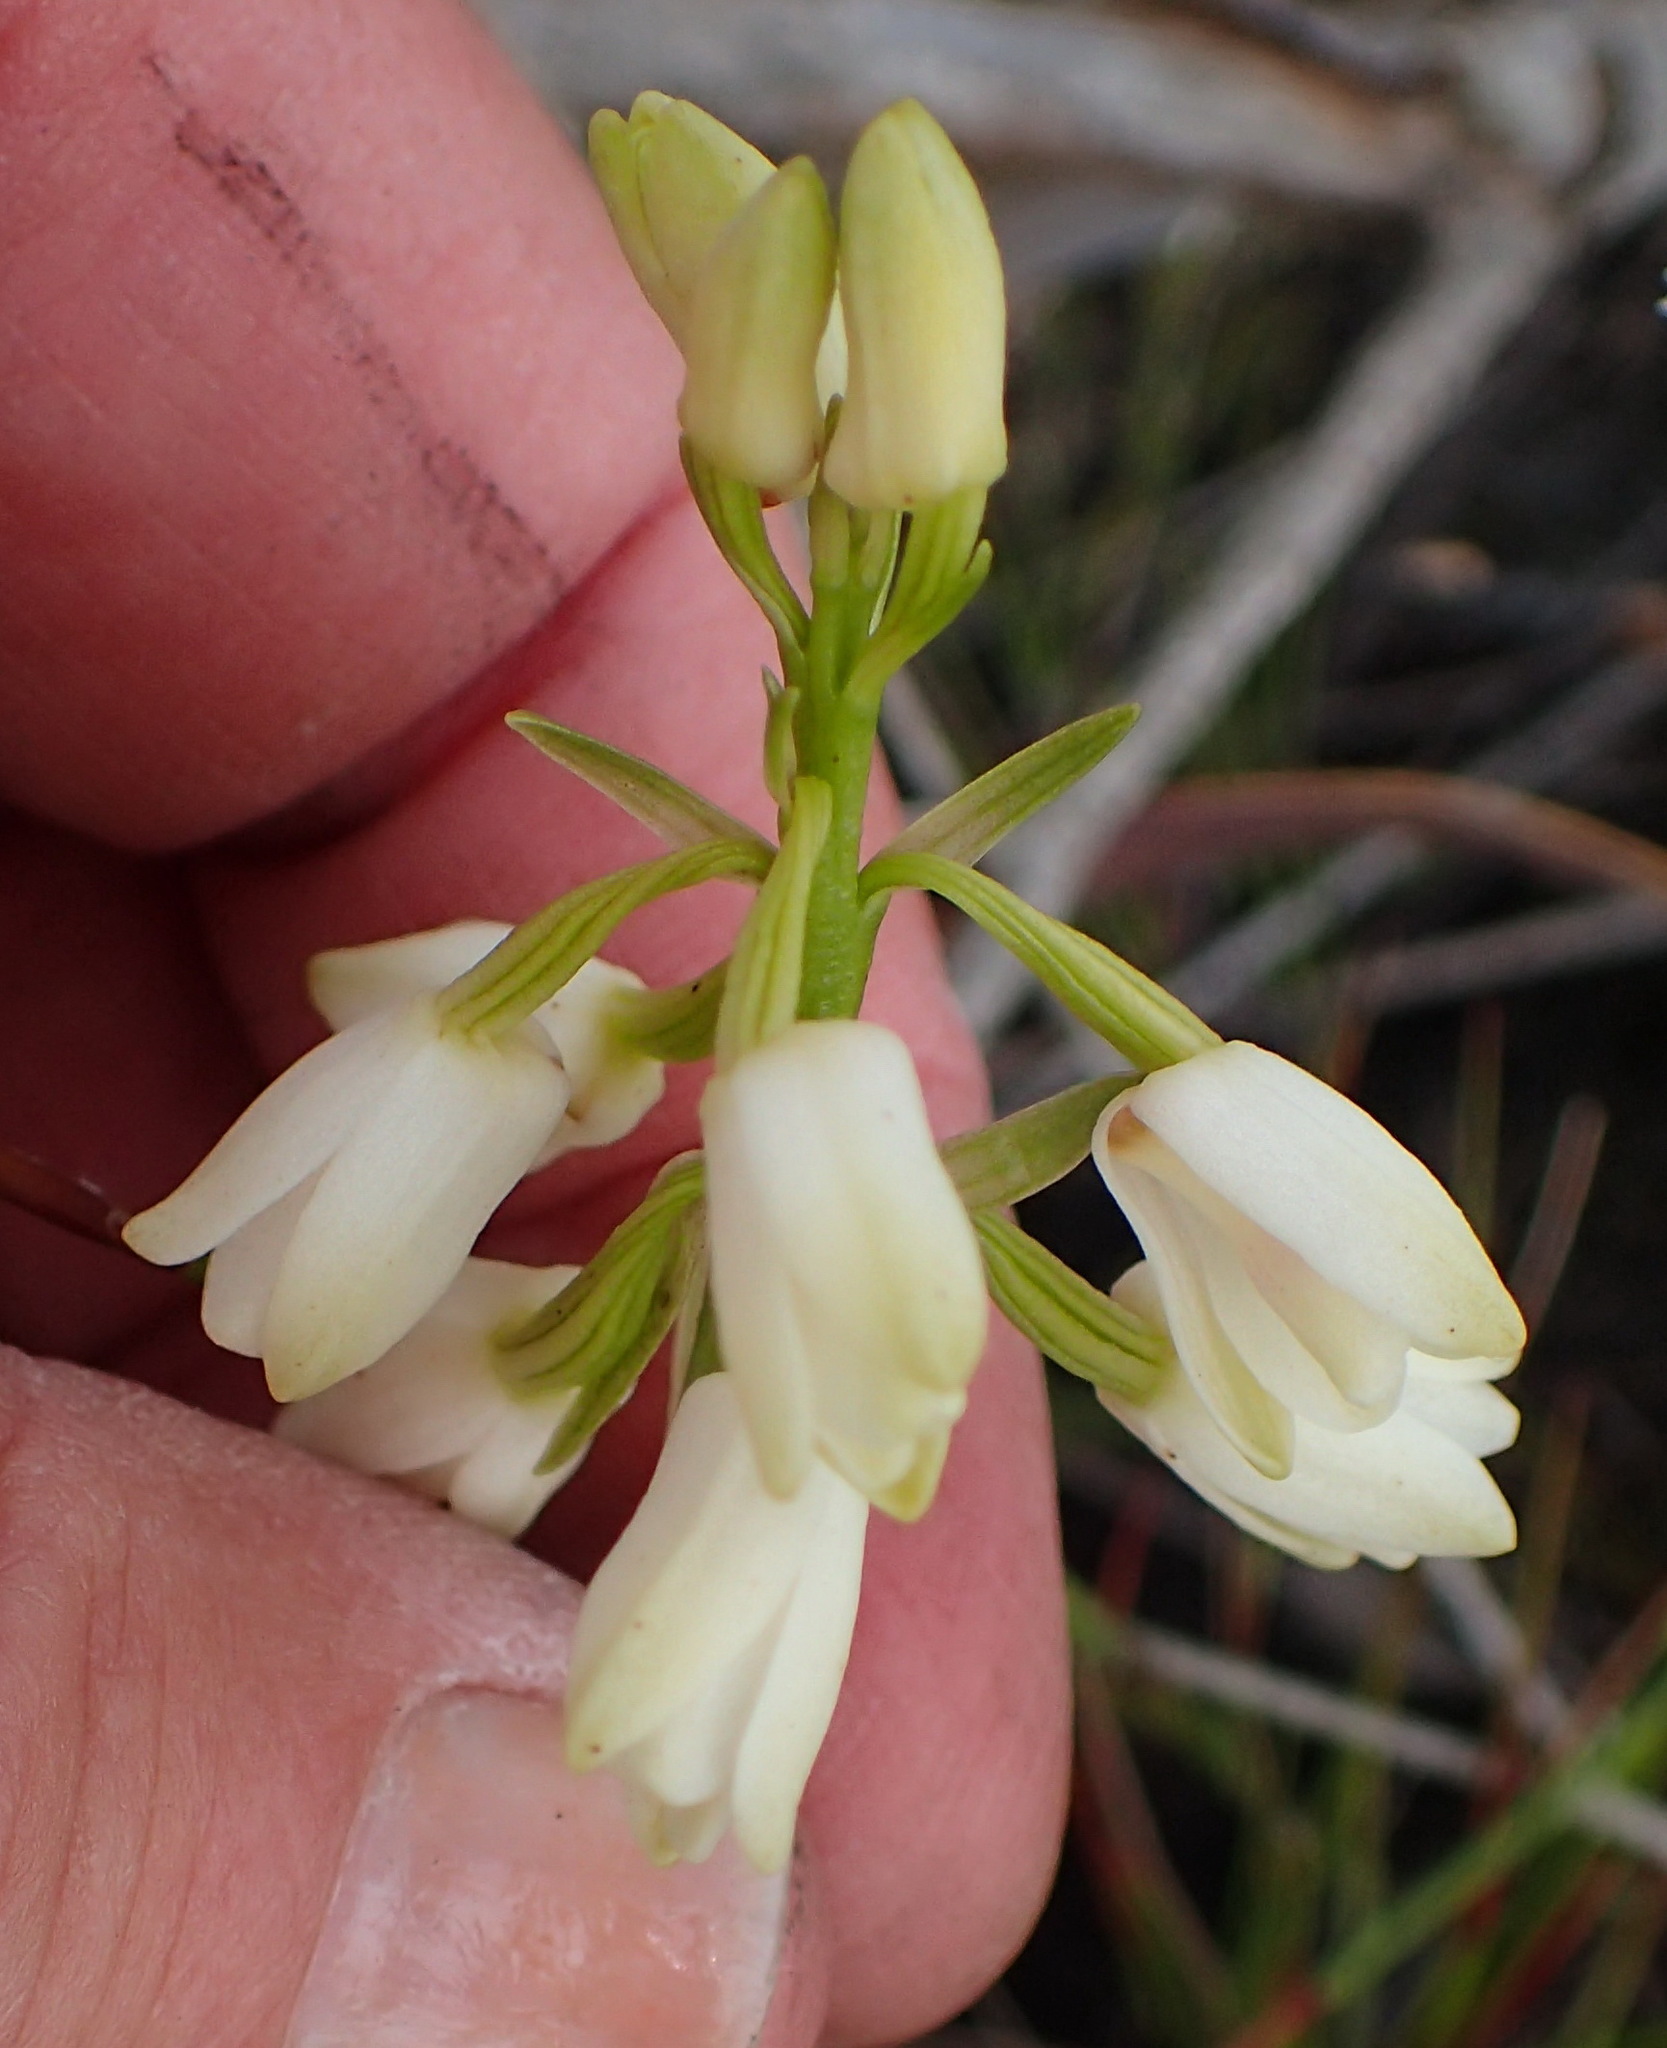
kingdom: Plantae
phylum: Tracheophyta
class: Liliopsida
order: Asparagales
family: Orchidaceae
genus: Eulophia
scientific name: Eulophia aculeata
